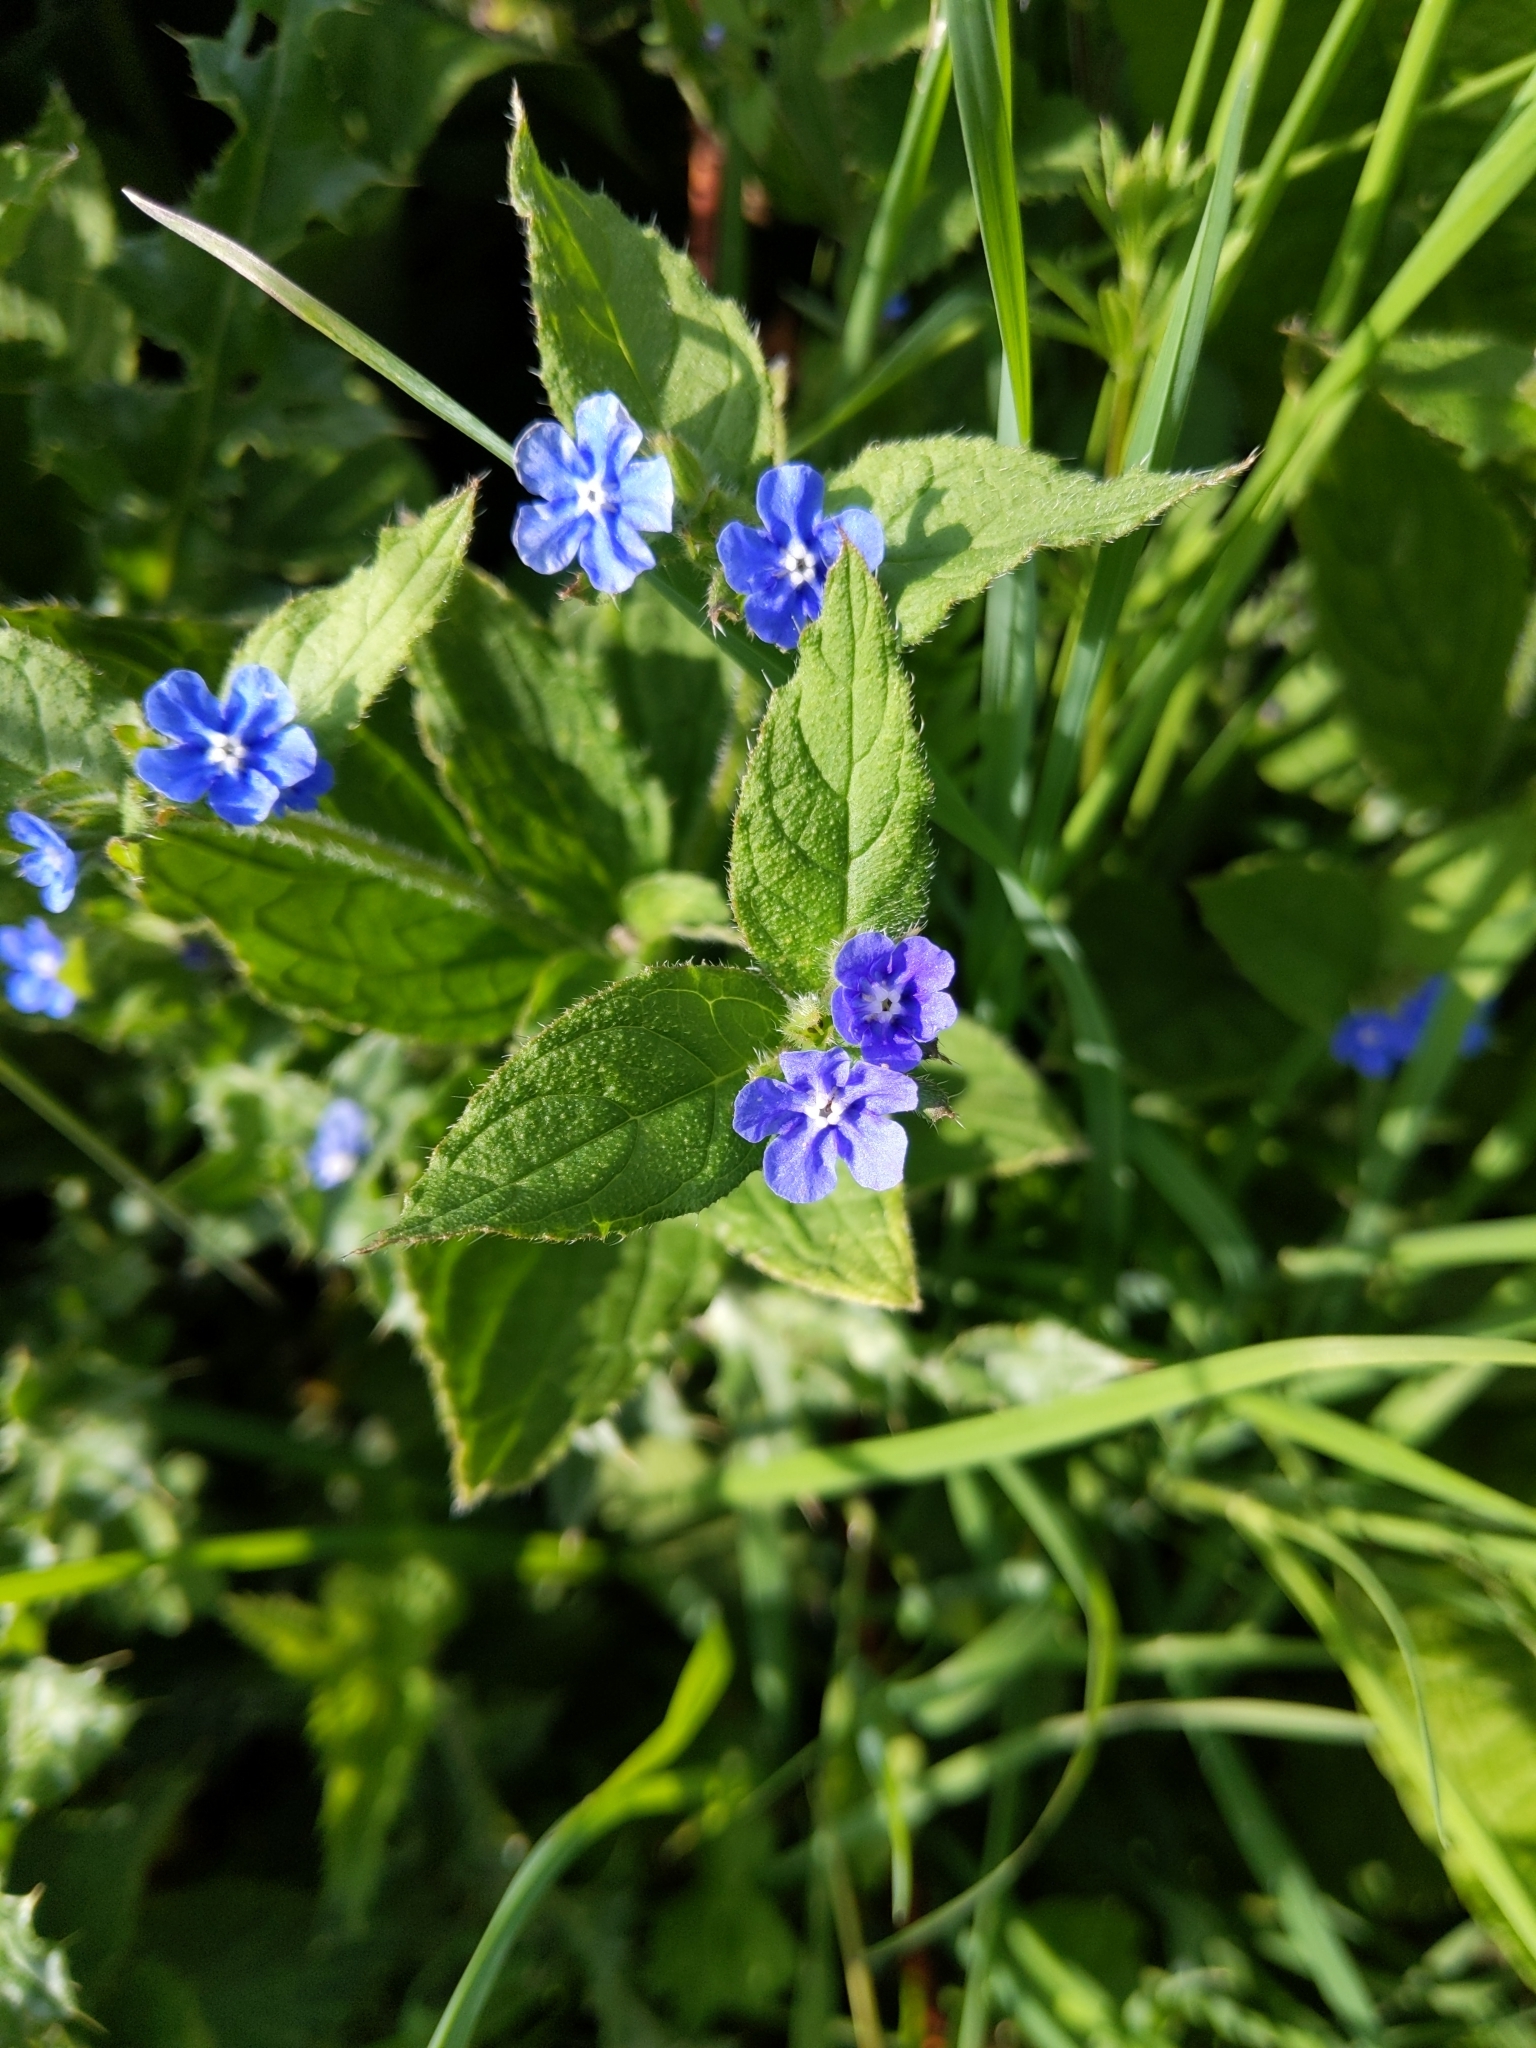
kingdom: Plantae
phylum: Tracheophyta
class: Magnoliopsida
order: Boraginales
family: Boraginaceae
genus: Pentaglottis
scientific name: Pentaglottis sempervirens
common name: Green alkanet
